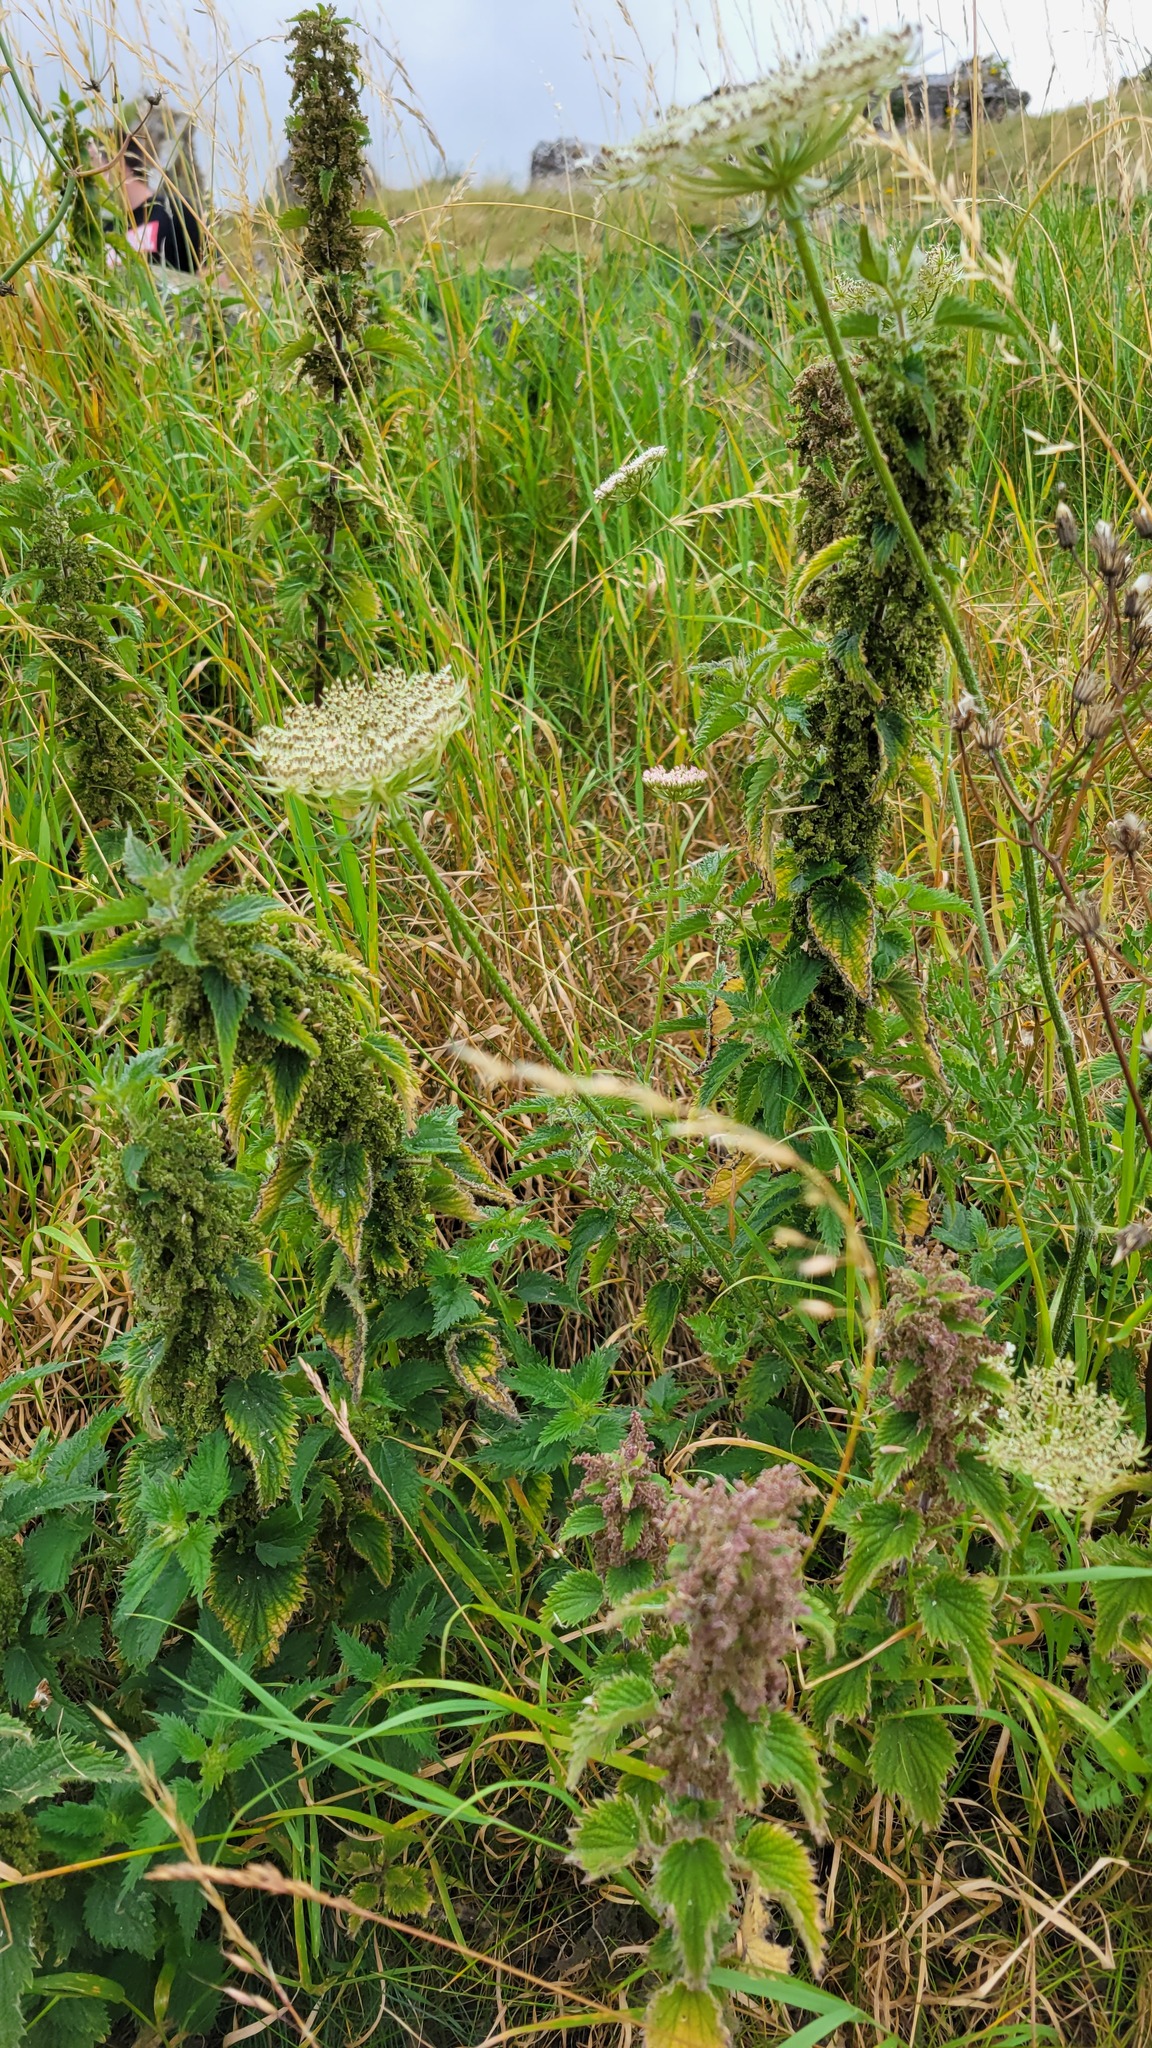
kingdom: Plantae
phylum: Tracheophyta
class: Magnoliopsida
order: Rosales
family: Urticaceae
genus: Urtica
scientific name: Urtica dioica
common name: Common nettle
